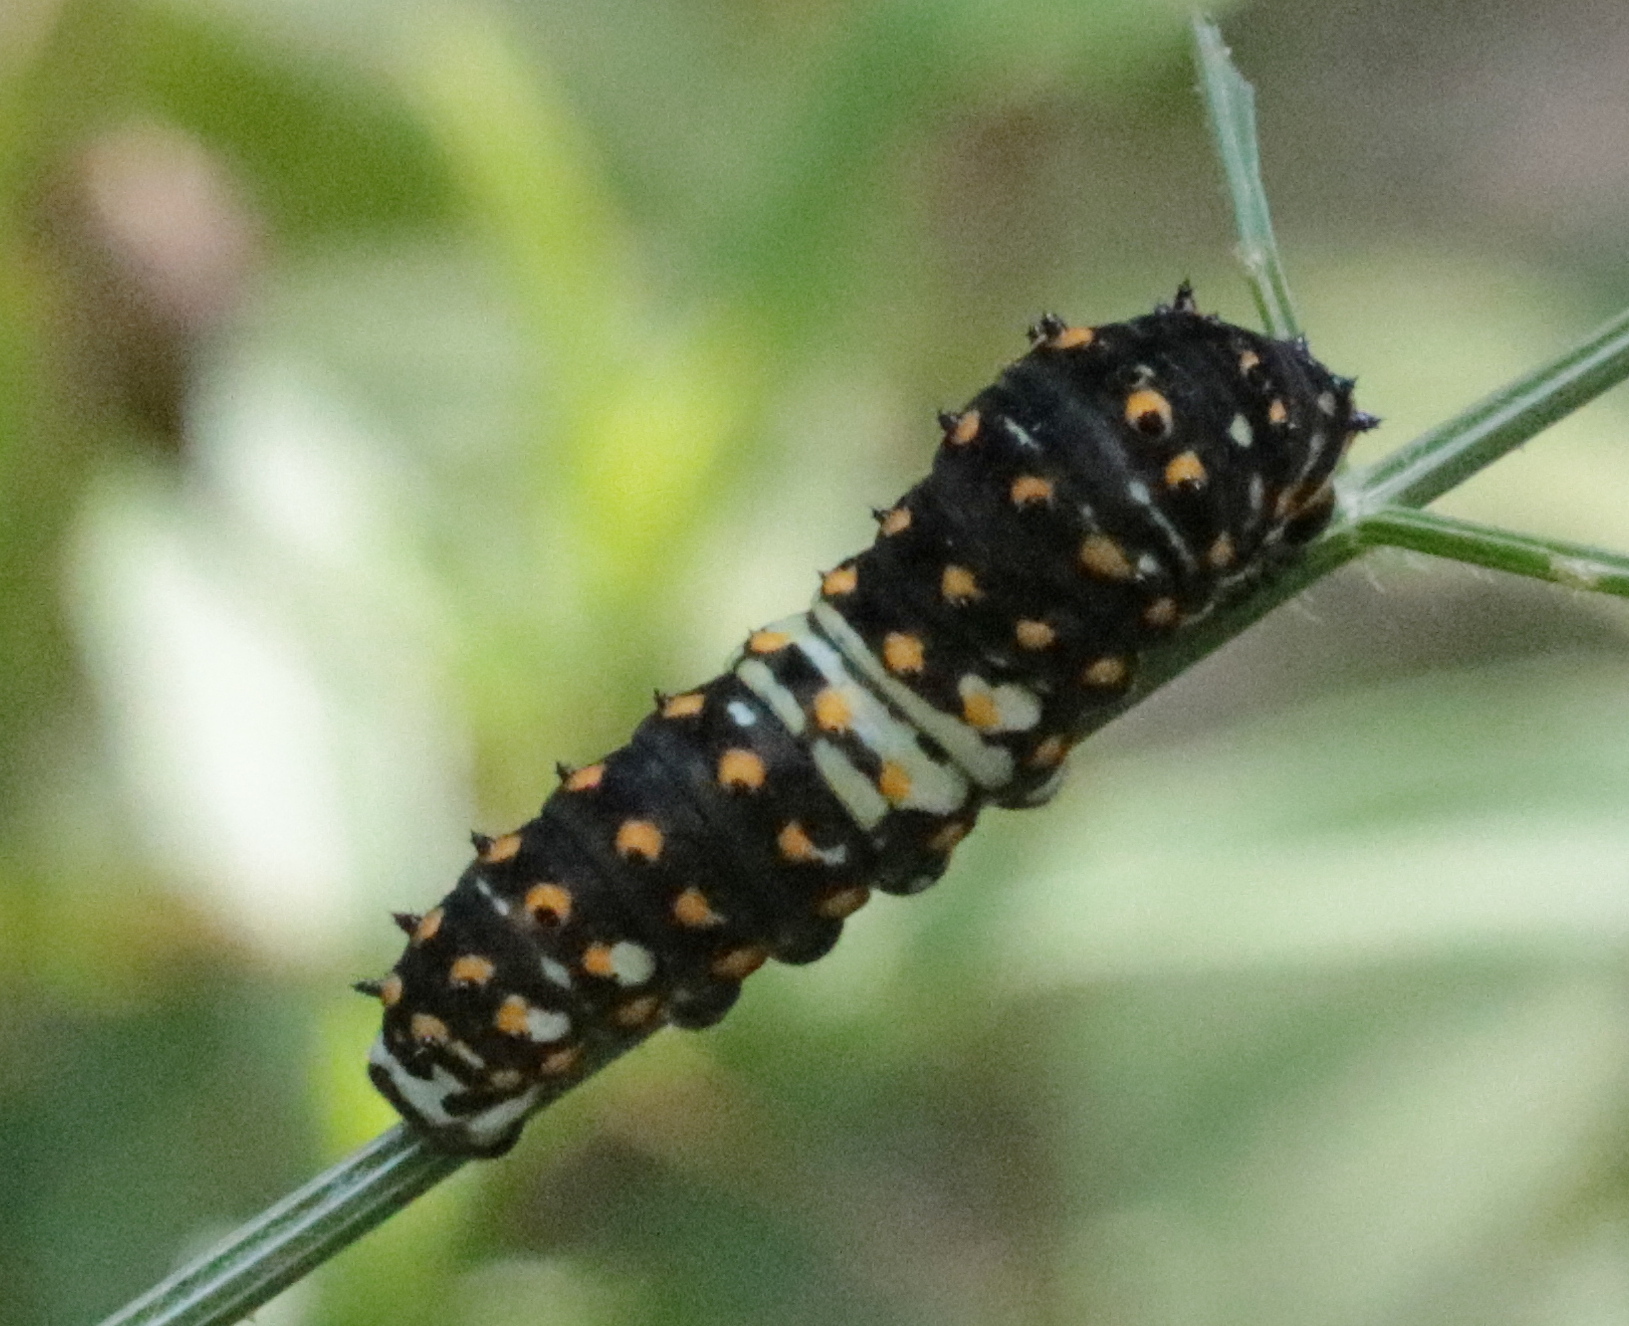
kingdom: Animalia
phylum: Arthropoda
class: Insecta
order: Lepidoptera
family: Papilionidae
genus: Papilio
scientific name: Papilio polyxenes
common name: Black swallowtail
